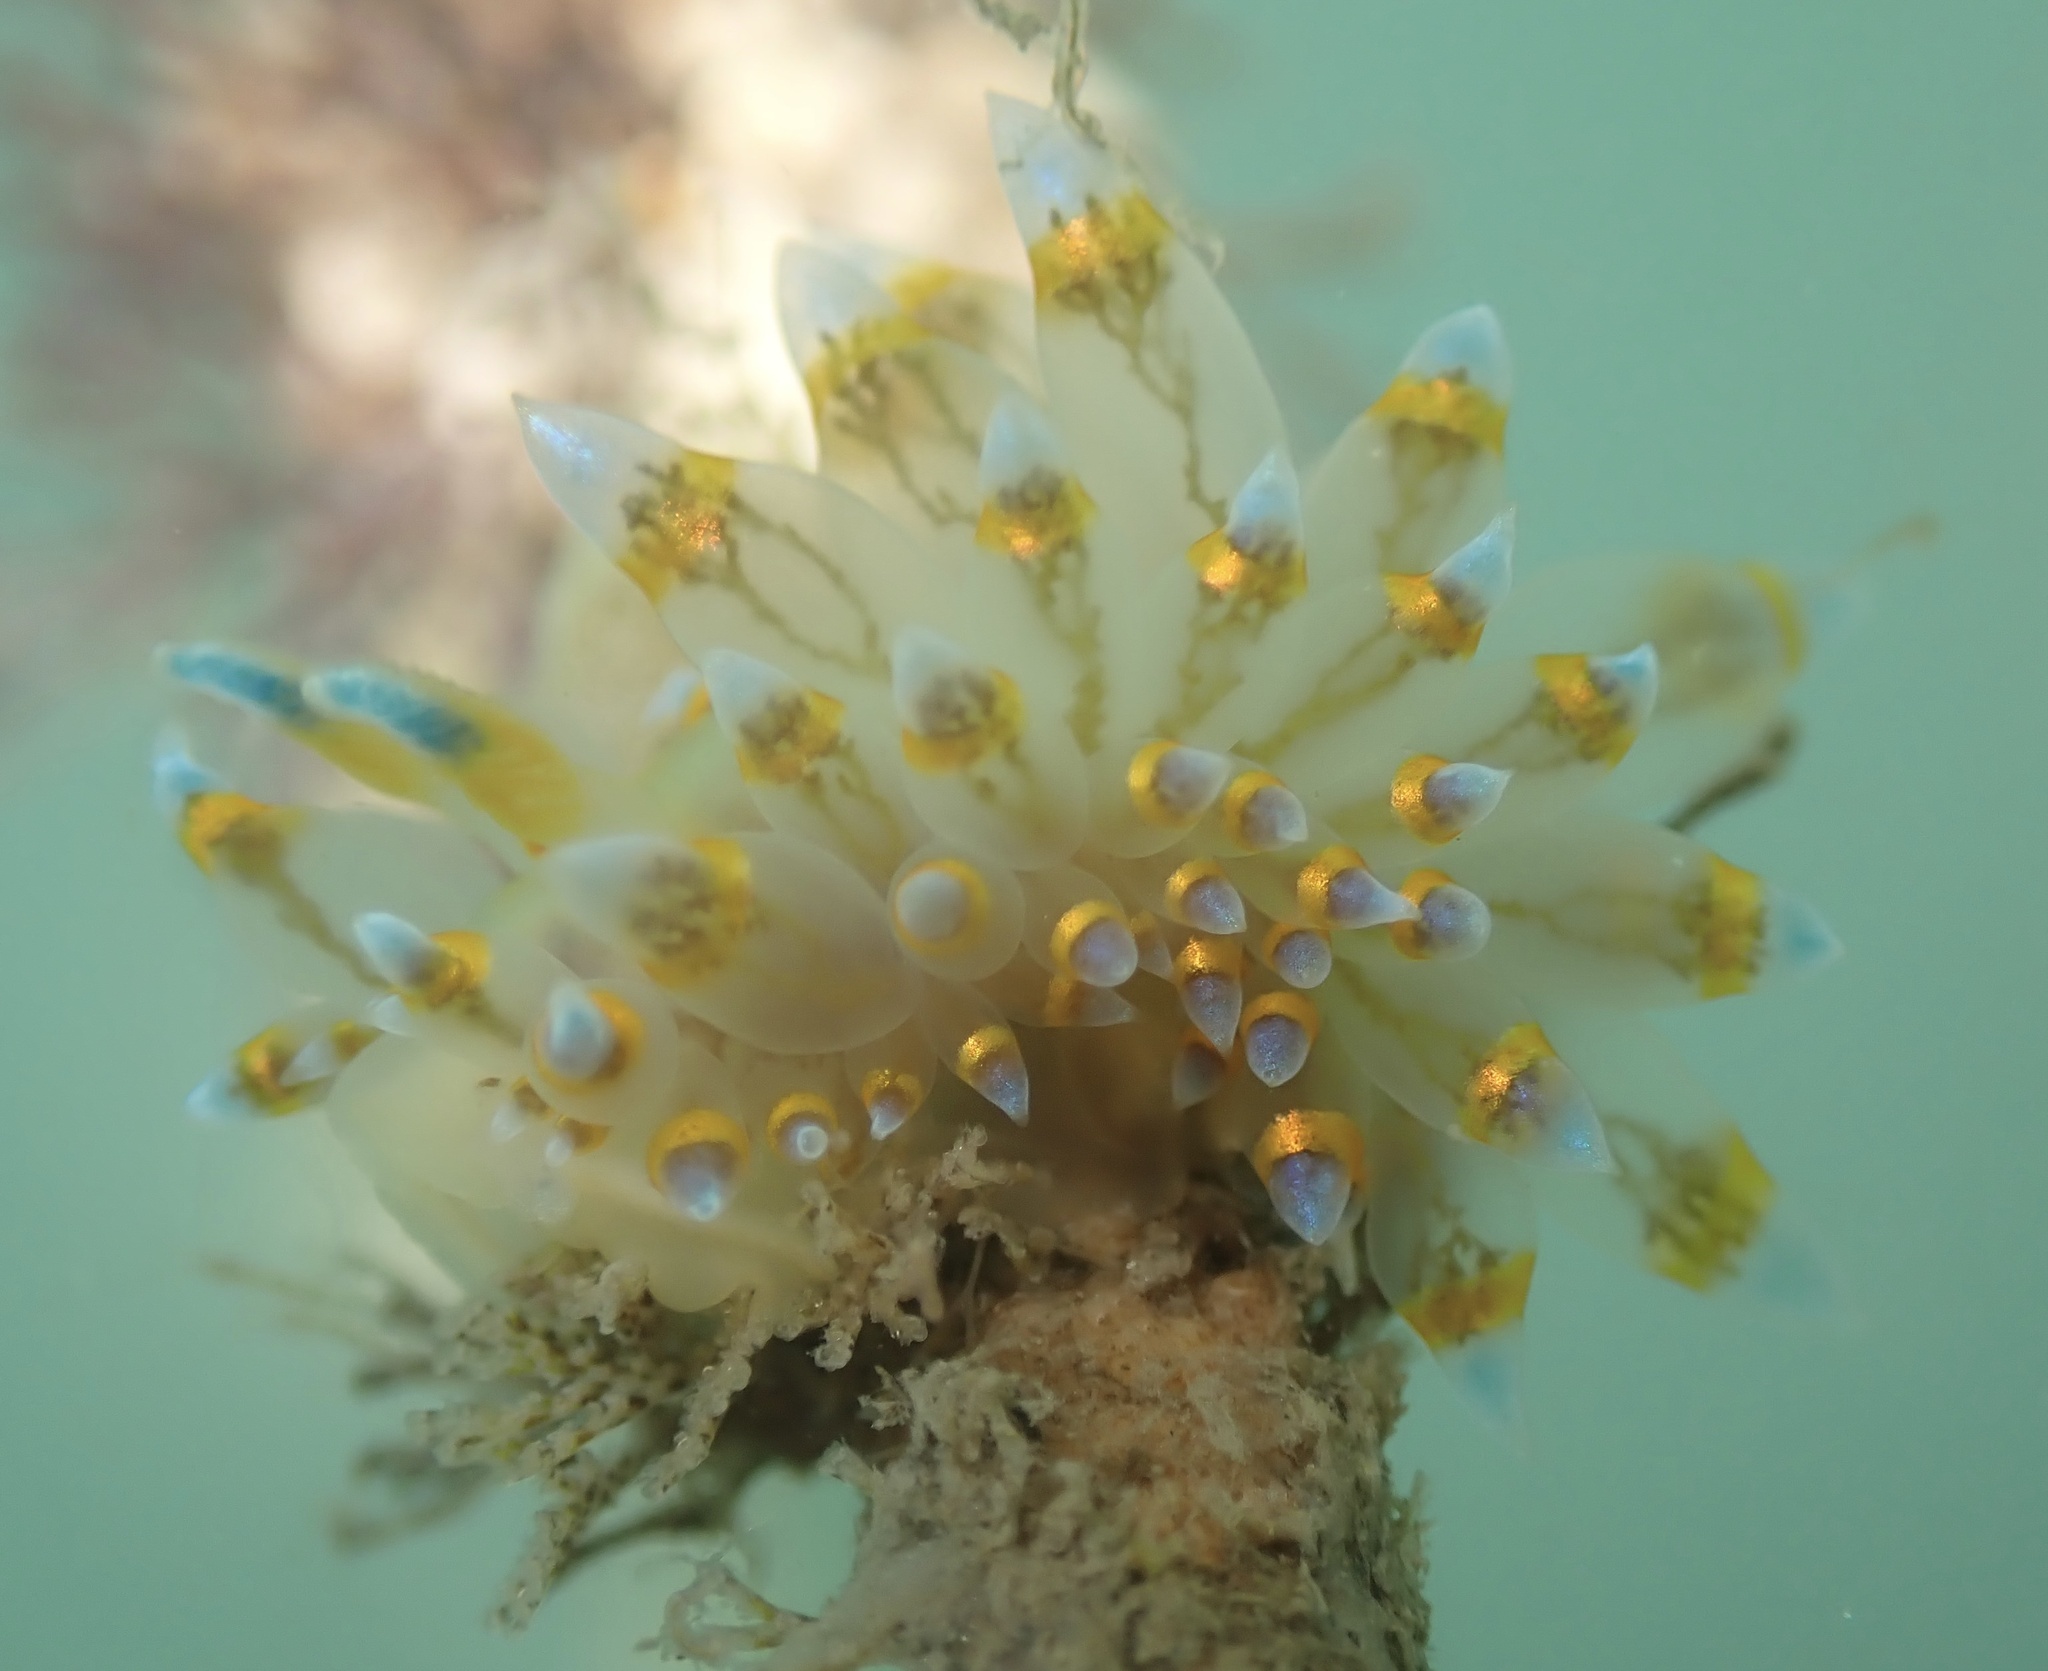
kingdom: Animalia
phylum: Mollusca
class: Gastropoda
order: Nudibranchia
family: Janolidae
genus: Antiopella
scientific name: Antiopella barbarensis
